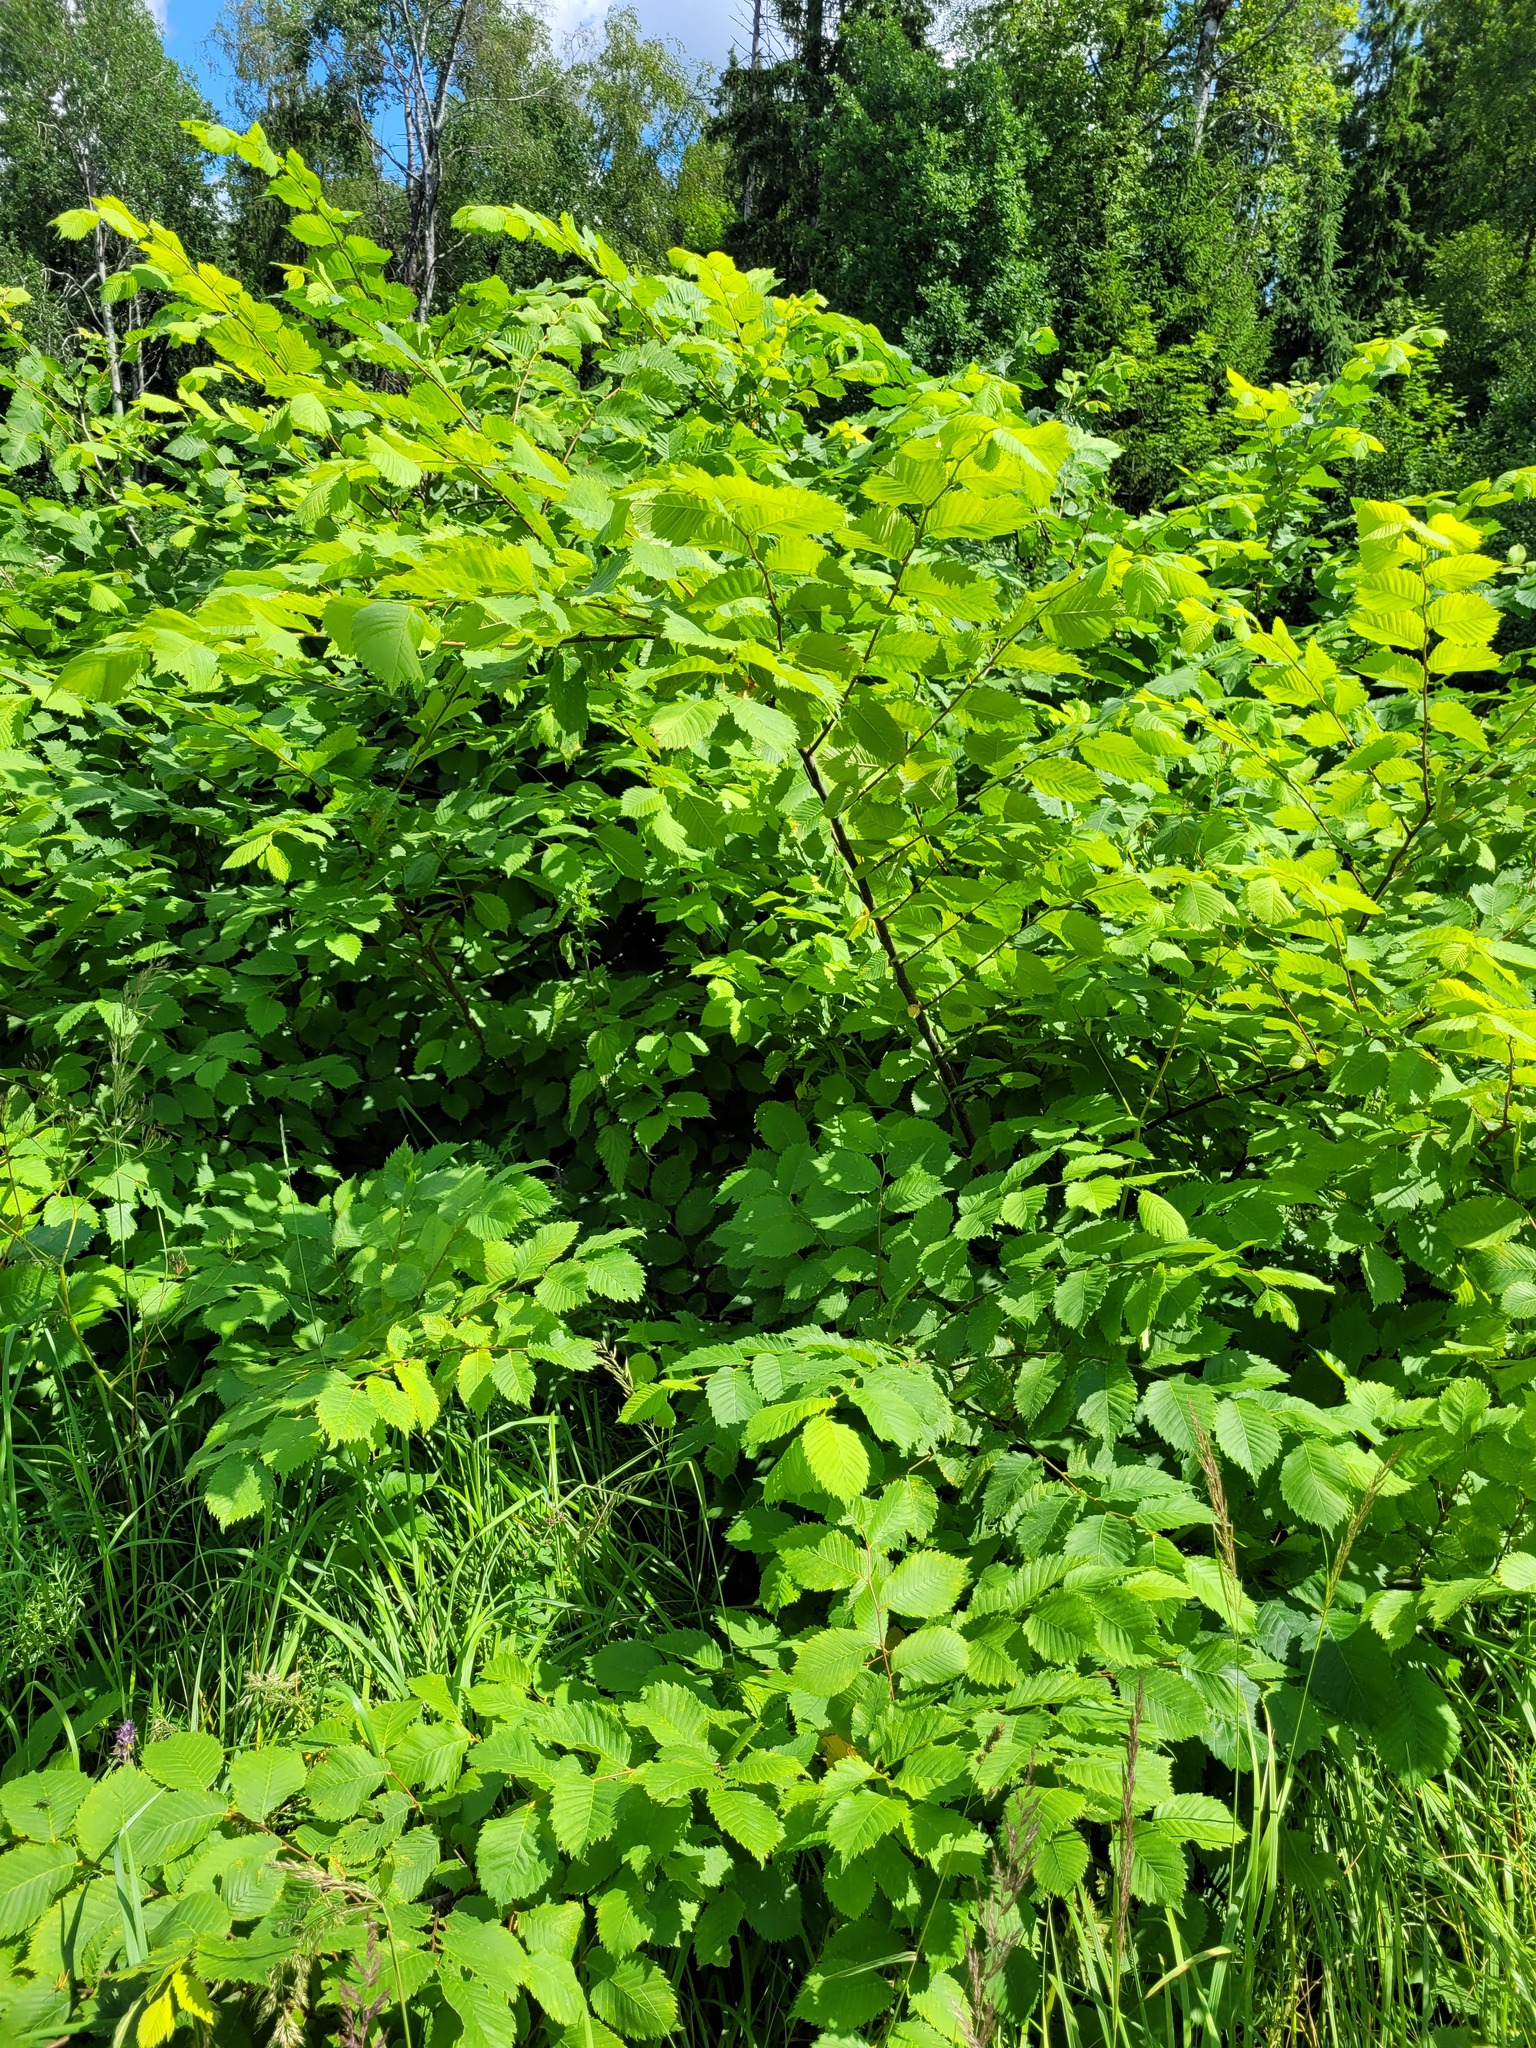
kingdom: Plantae
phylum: Tracheophyta
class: Magnoliopsida
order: Rosales
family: Ulmaceae
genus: Ulmus
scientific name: Ulmus laevis
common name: European white-elm
